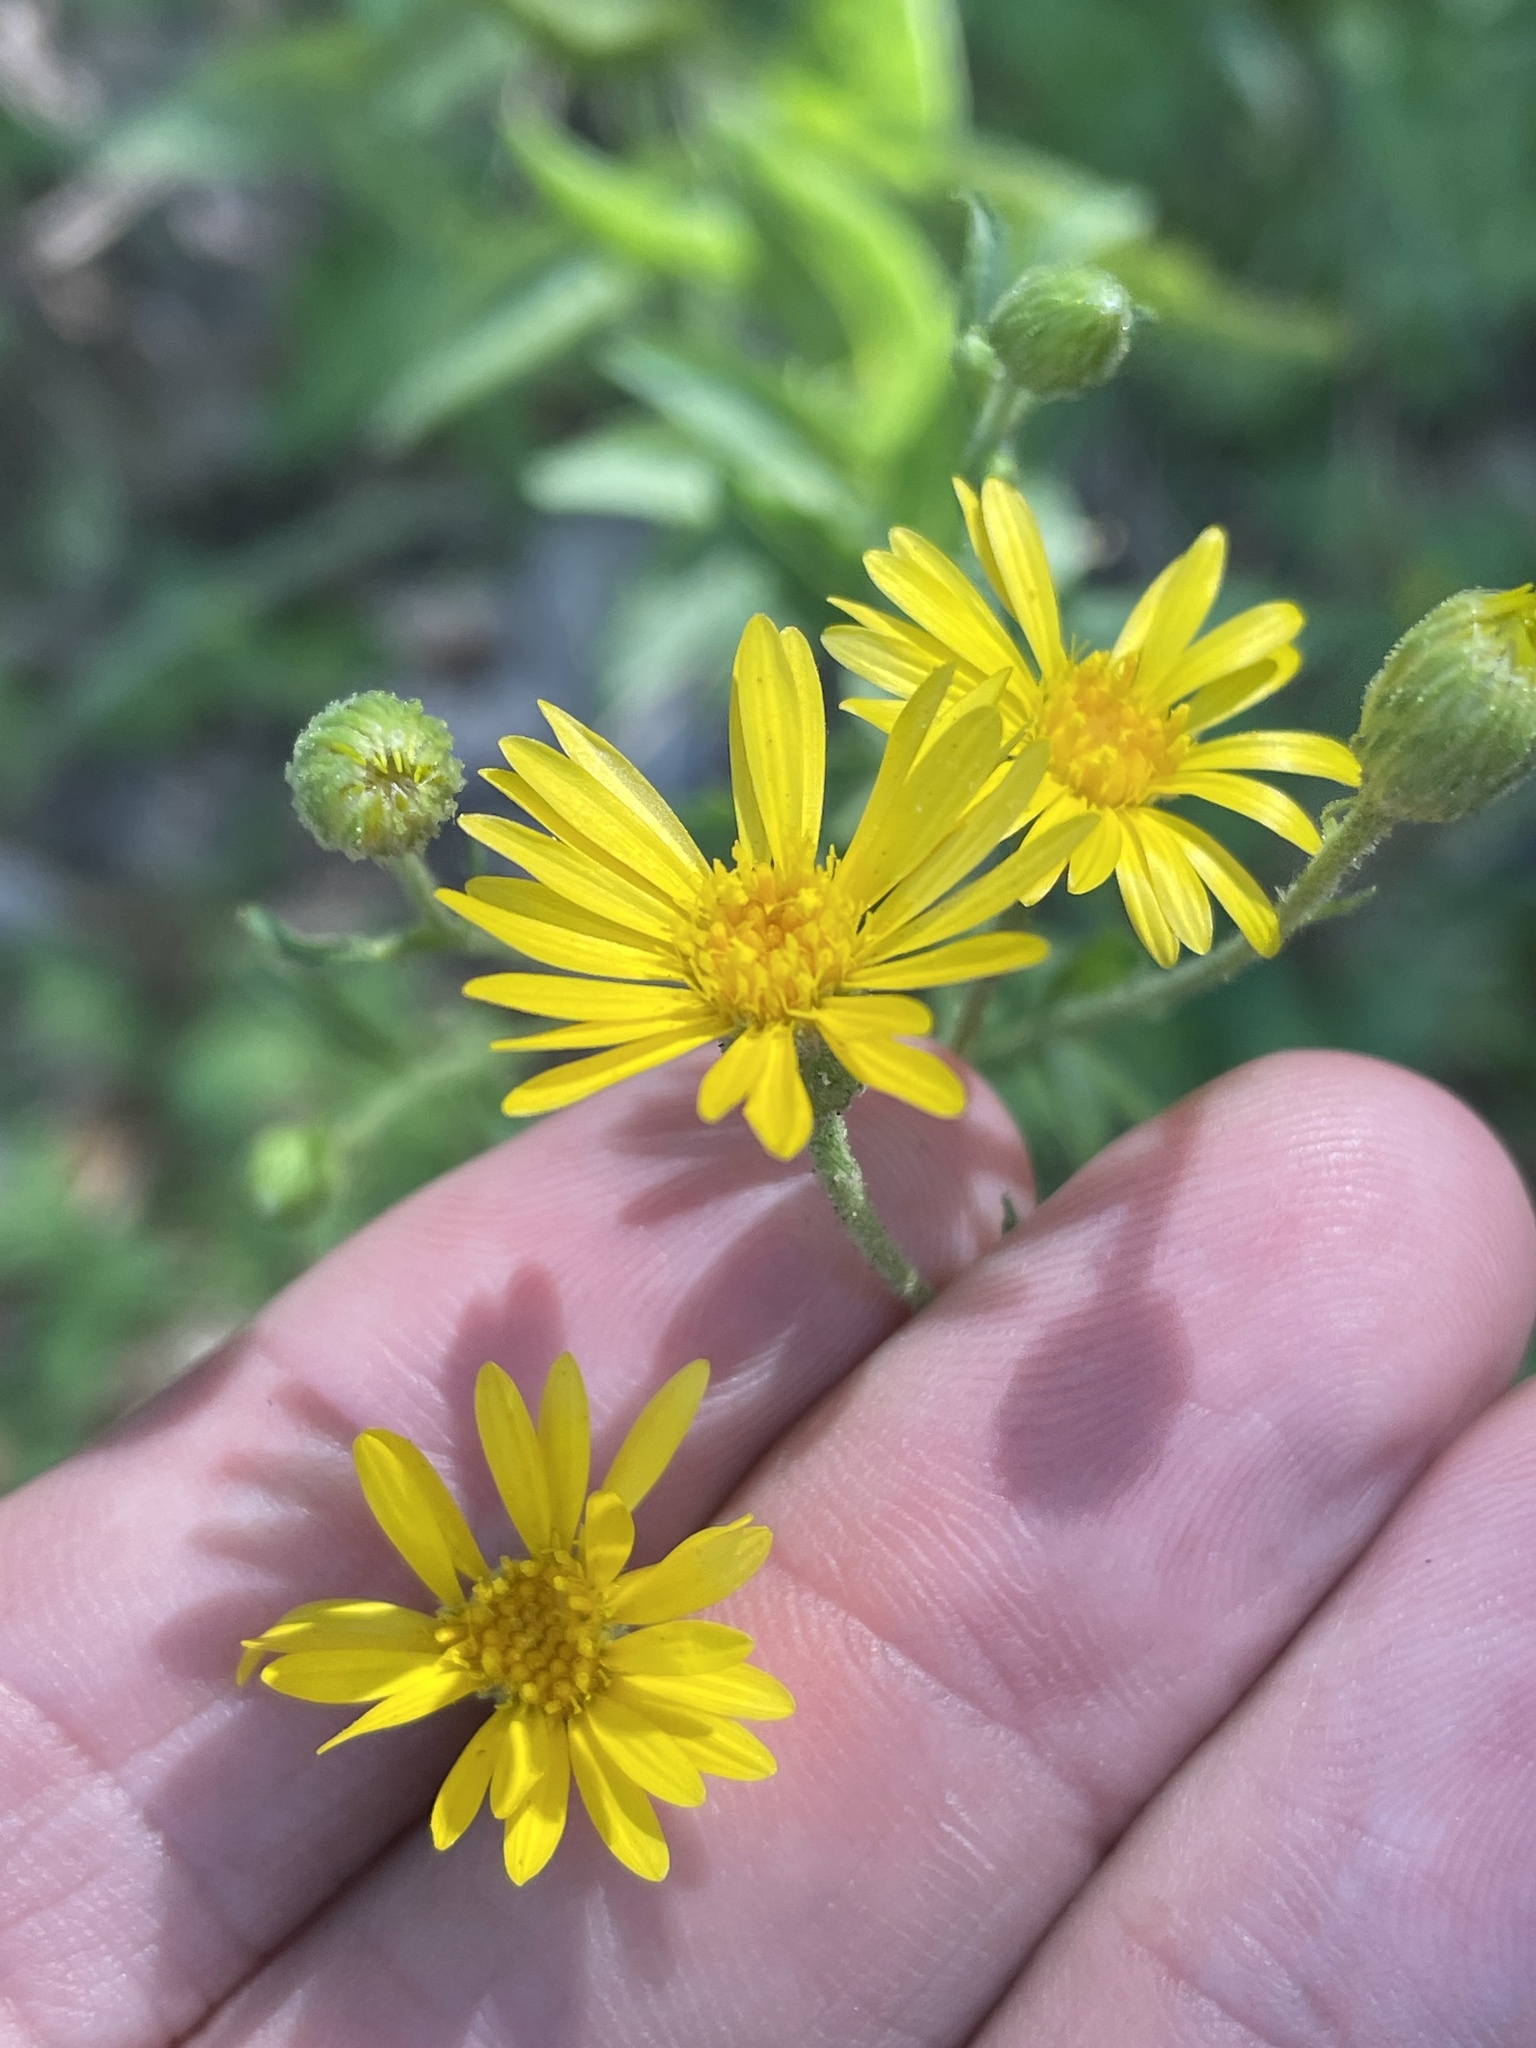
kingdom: Plantae
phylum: Tracheophyta
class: Magnoliopsida
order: Asterales
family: Asteraceae
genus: Heterotheca
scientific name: Heterotheca subaxillaris
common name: Camphorweed
